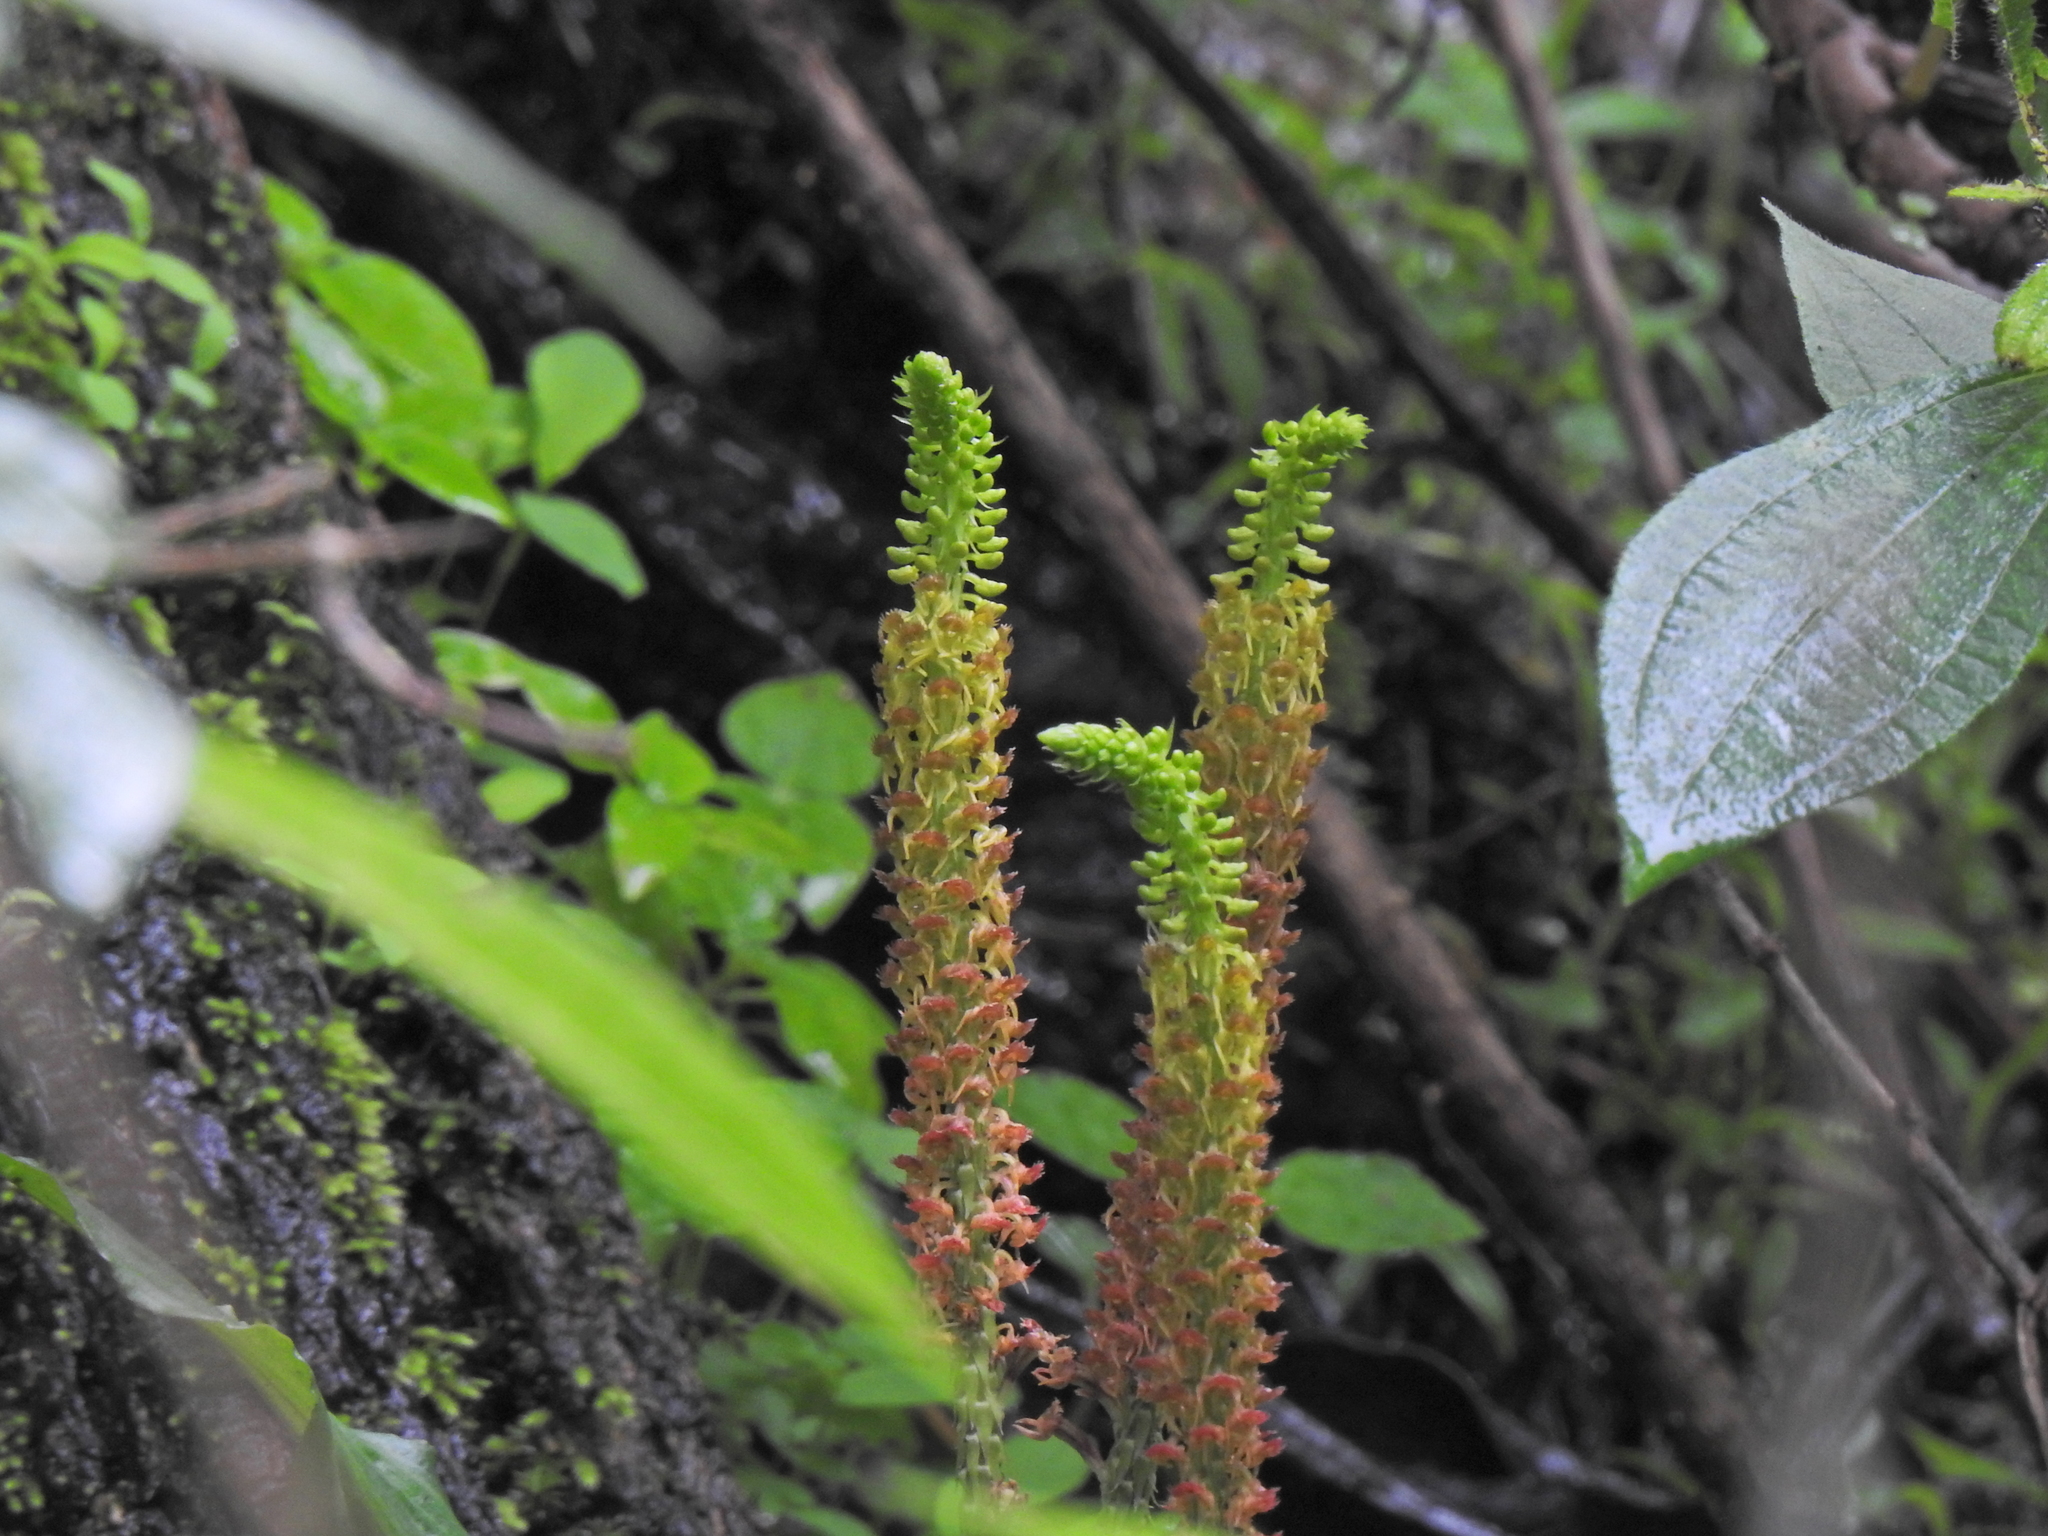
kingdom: Plantae
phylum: Tracheophyta
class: Liliopsida
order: Asparagales
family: Orchidaceae
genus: Malaxis
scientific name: Malaxis densiflora
